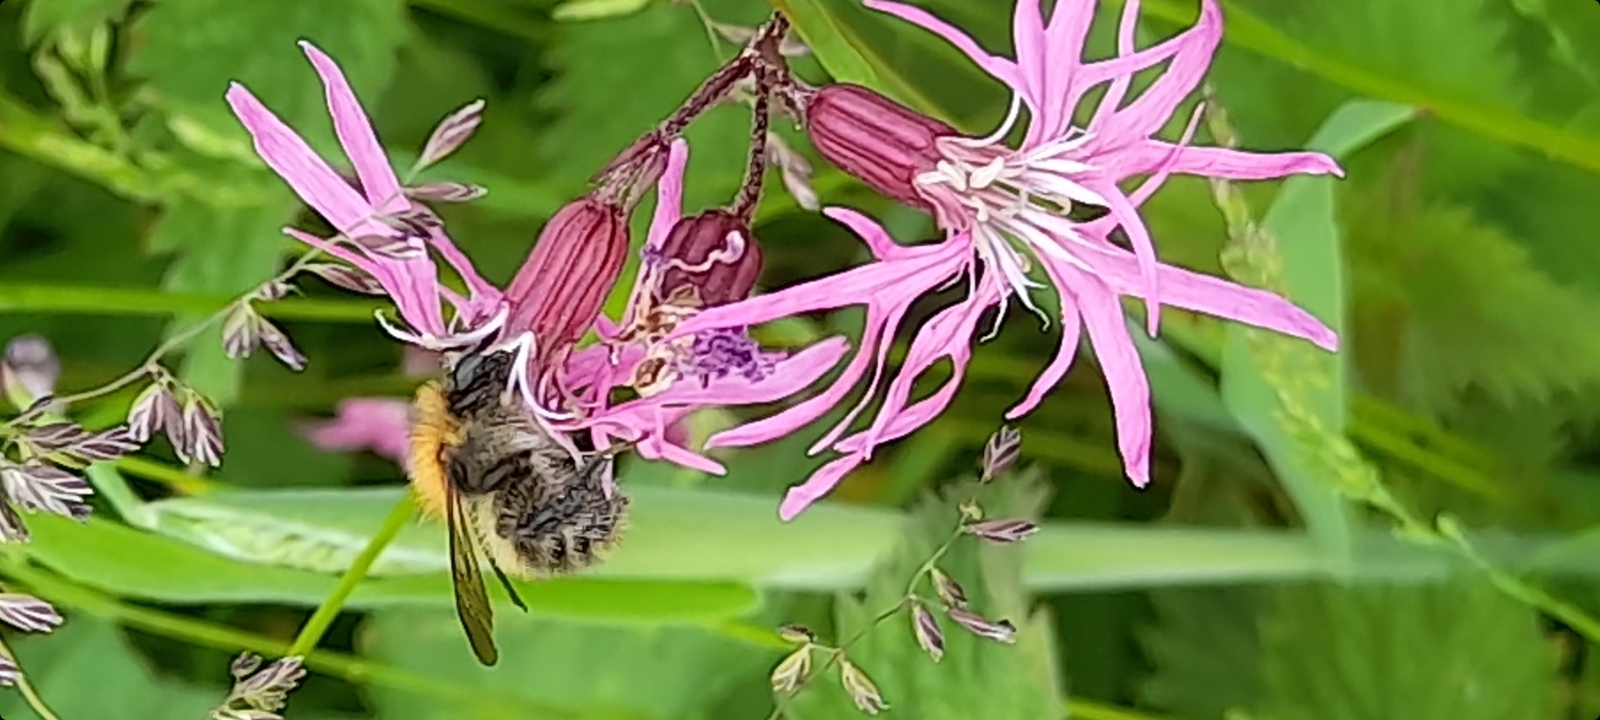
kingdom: Animalia
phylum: Arthropoda
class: Insecta
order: Hymenoptera
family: Apidae
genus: Bombus
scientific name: Bombus pascuorum
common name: Common carder bee
